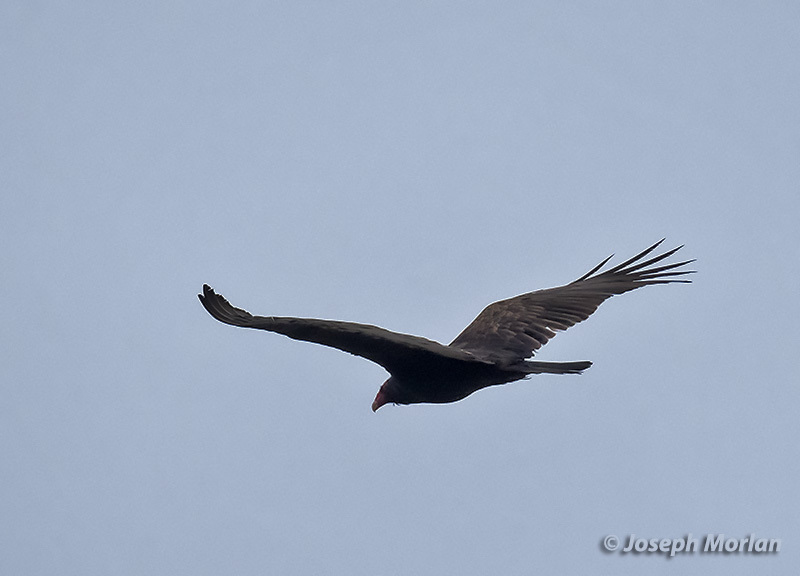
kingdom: Animalia
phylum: Chordata
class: Aves
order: Accipitriformes
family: Cathartidae
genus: Cathartes
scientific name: Cathartes aura
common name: Turkey vulture
